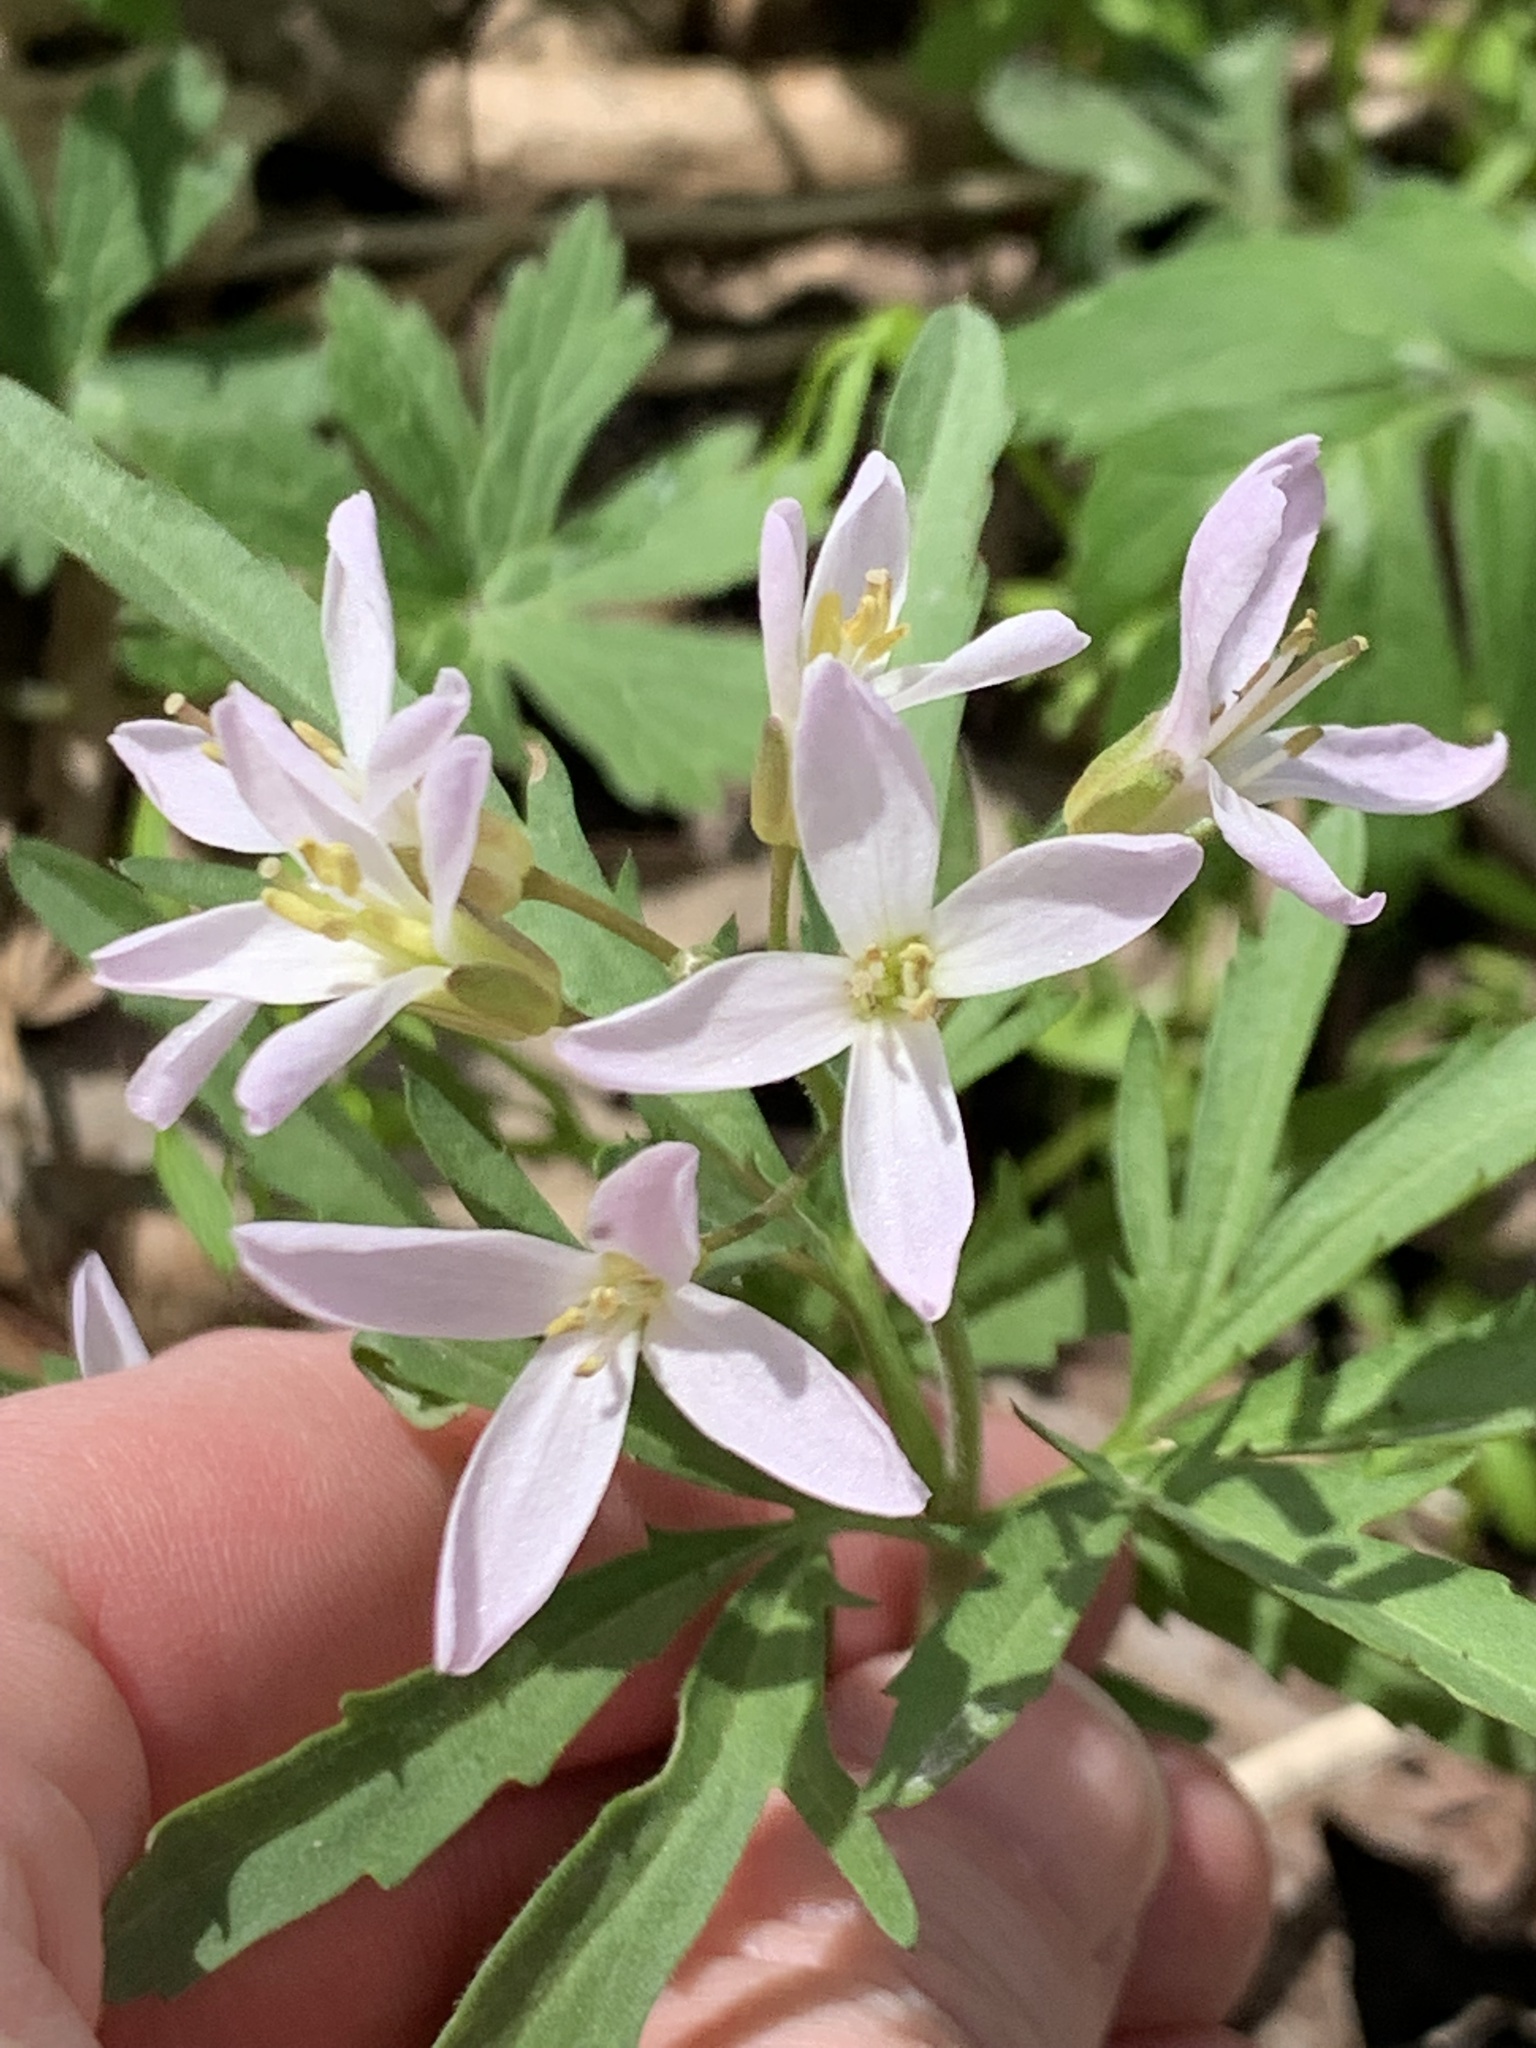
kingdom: Plantae
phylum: Tracheophyta
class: Magnoliopsida
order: Brassicales
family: Brassicaceae
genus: Cardamine
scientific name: Cardamine concatenata
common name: Cut-leaf toothcup
